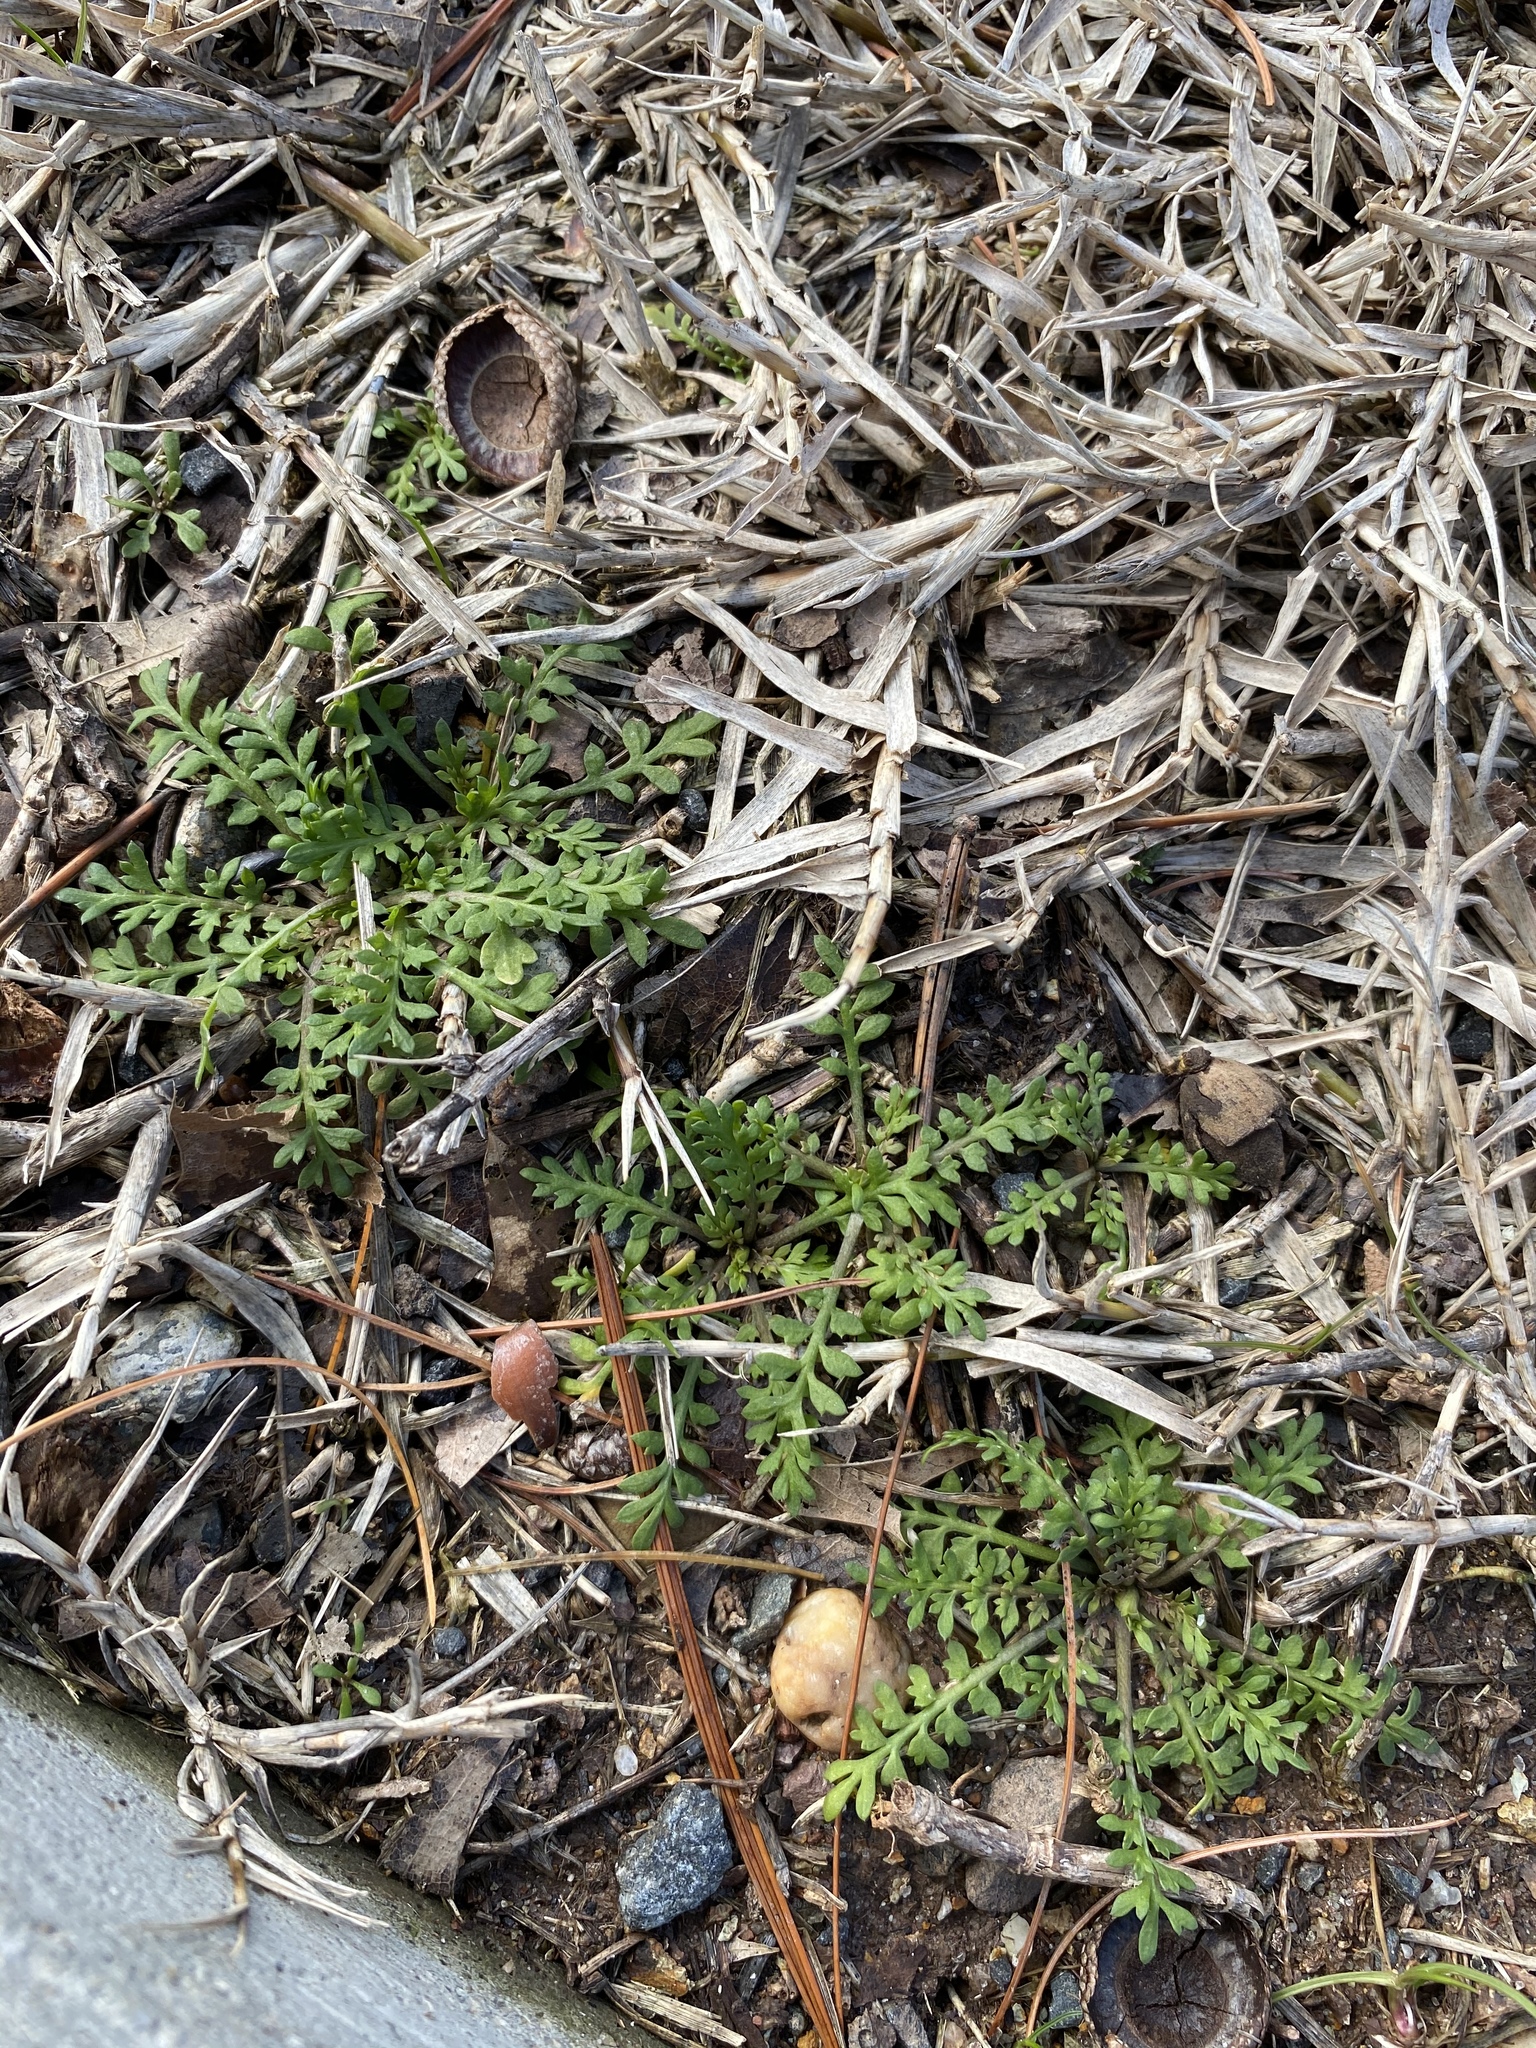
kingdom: Plantae
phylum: Tracheophyta
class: Magnoliopsida
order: Brassicales
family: Brassicaceae
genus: Lepidium
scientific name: Lepidium didymum
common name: Lesser swinecress
